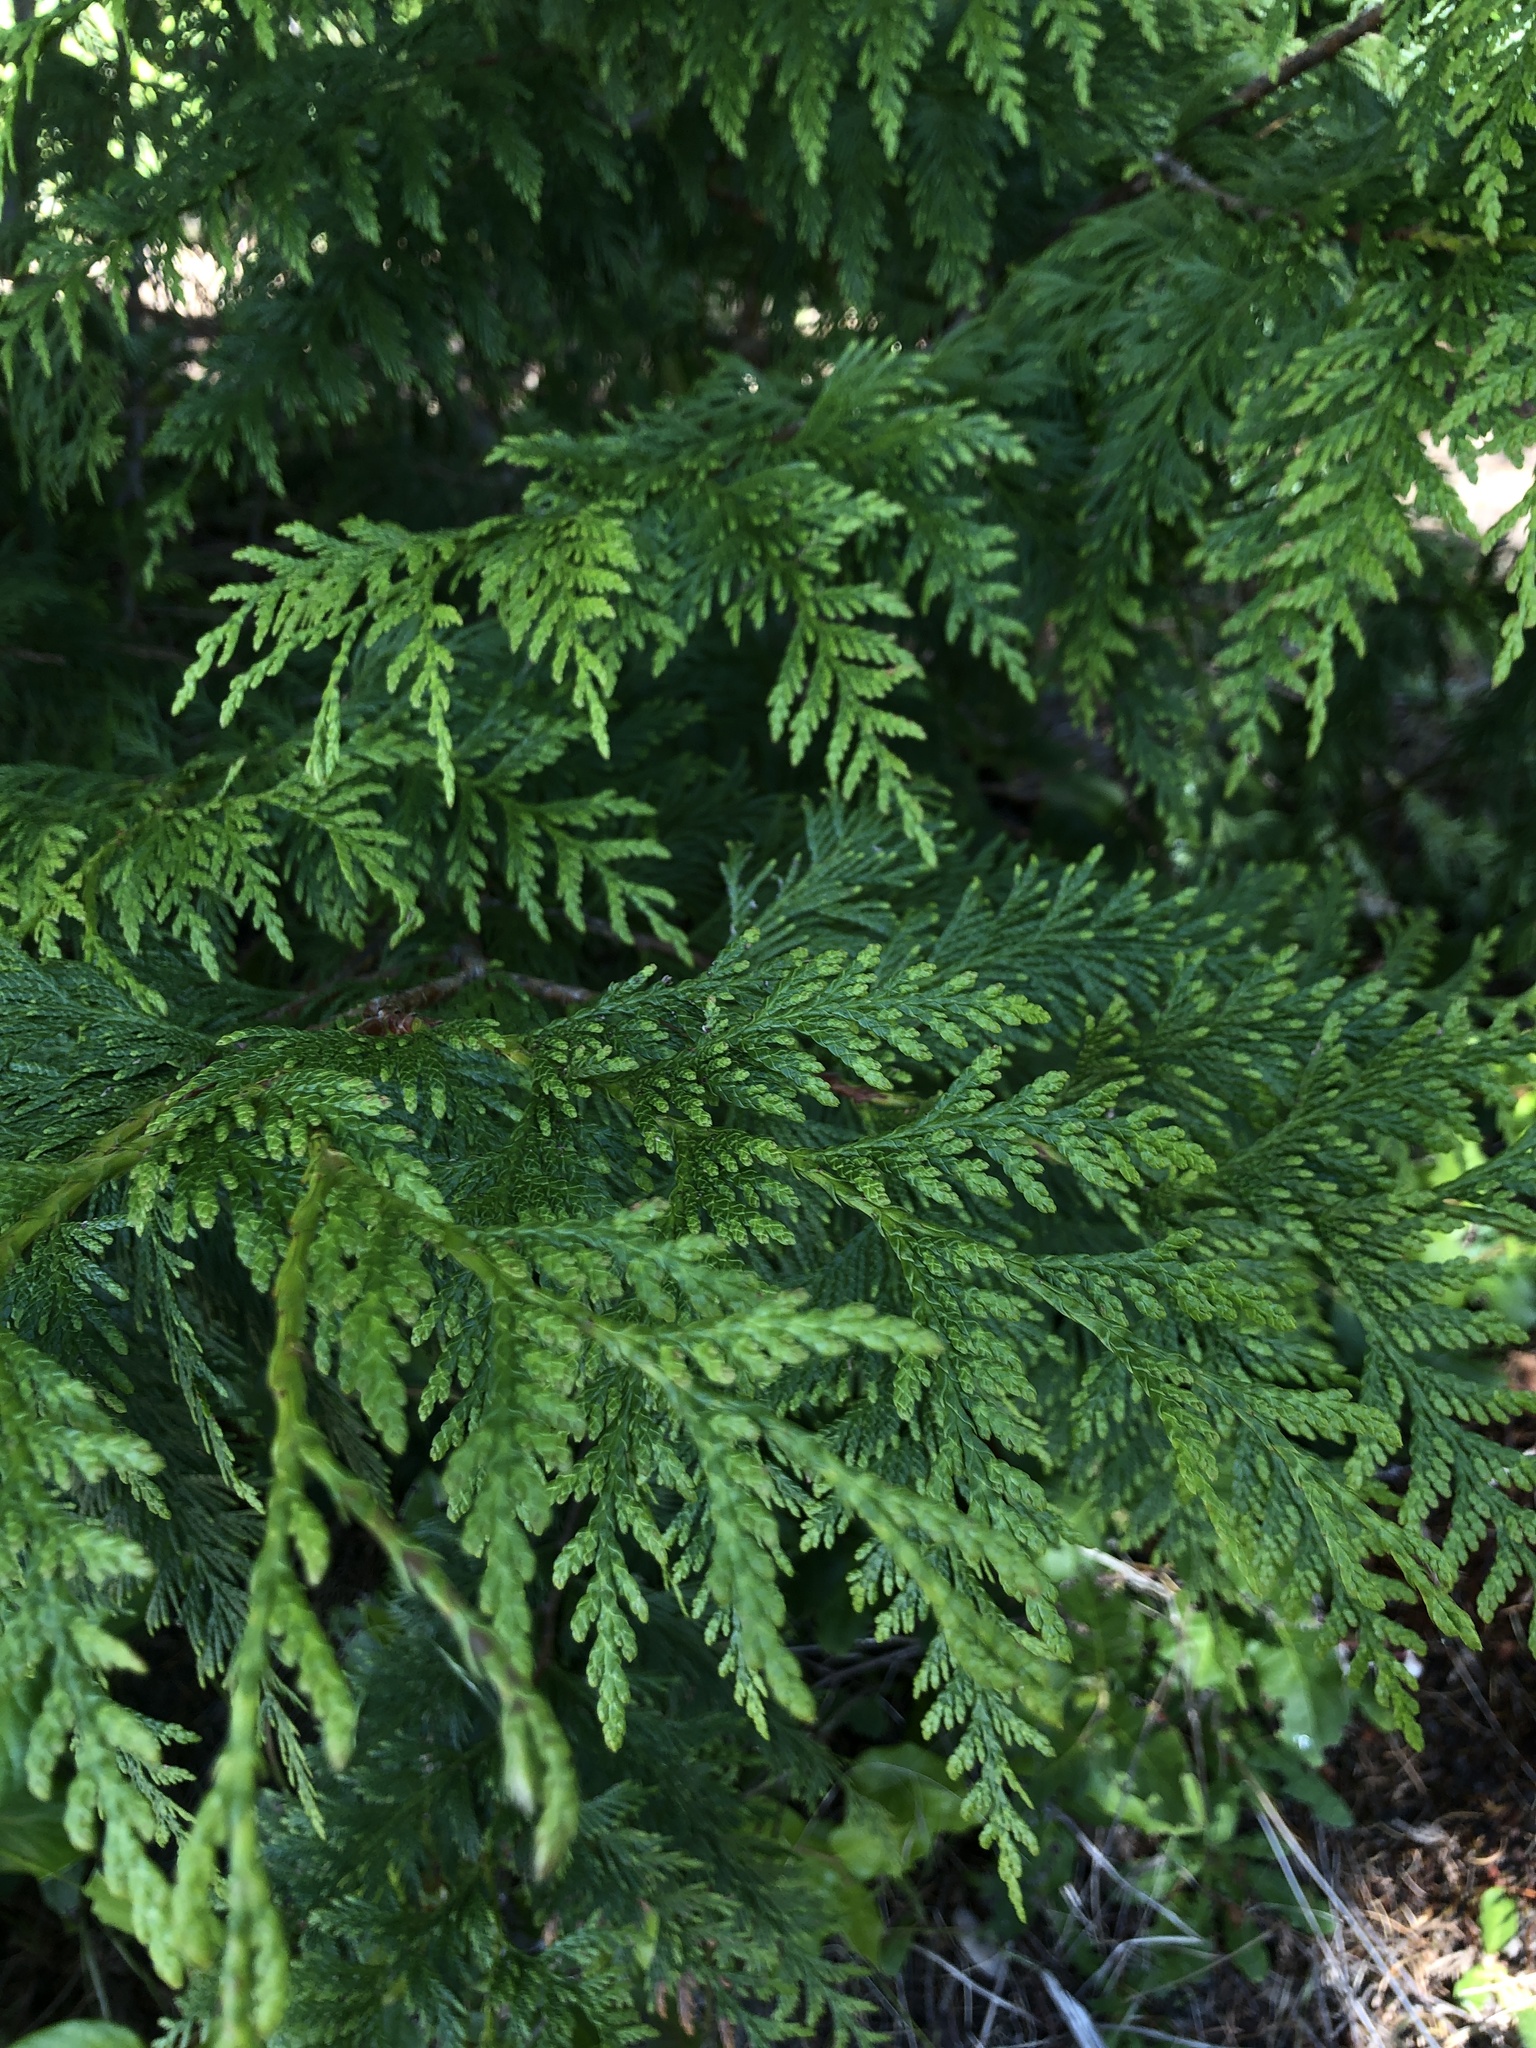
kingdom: Plantae
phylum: Tracheophyta
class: Pinopsida
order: Pinales
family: Cupressaceae
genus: Thuja
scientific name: Thuja plicata
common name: Western red-cedar
